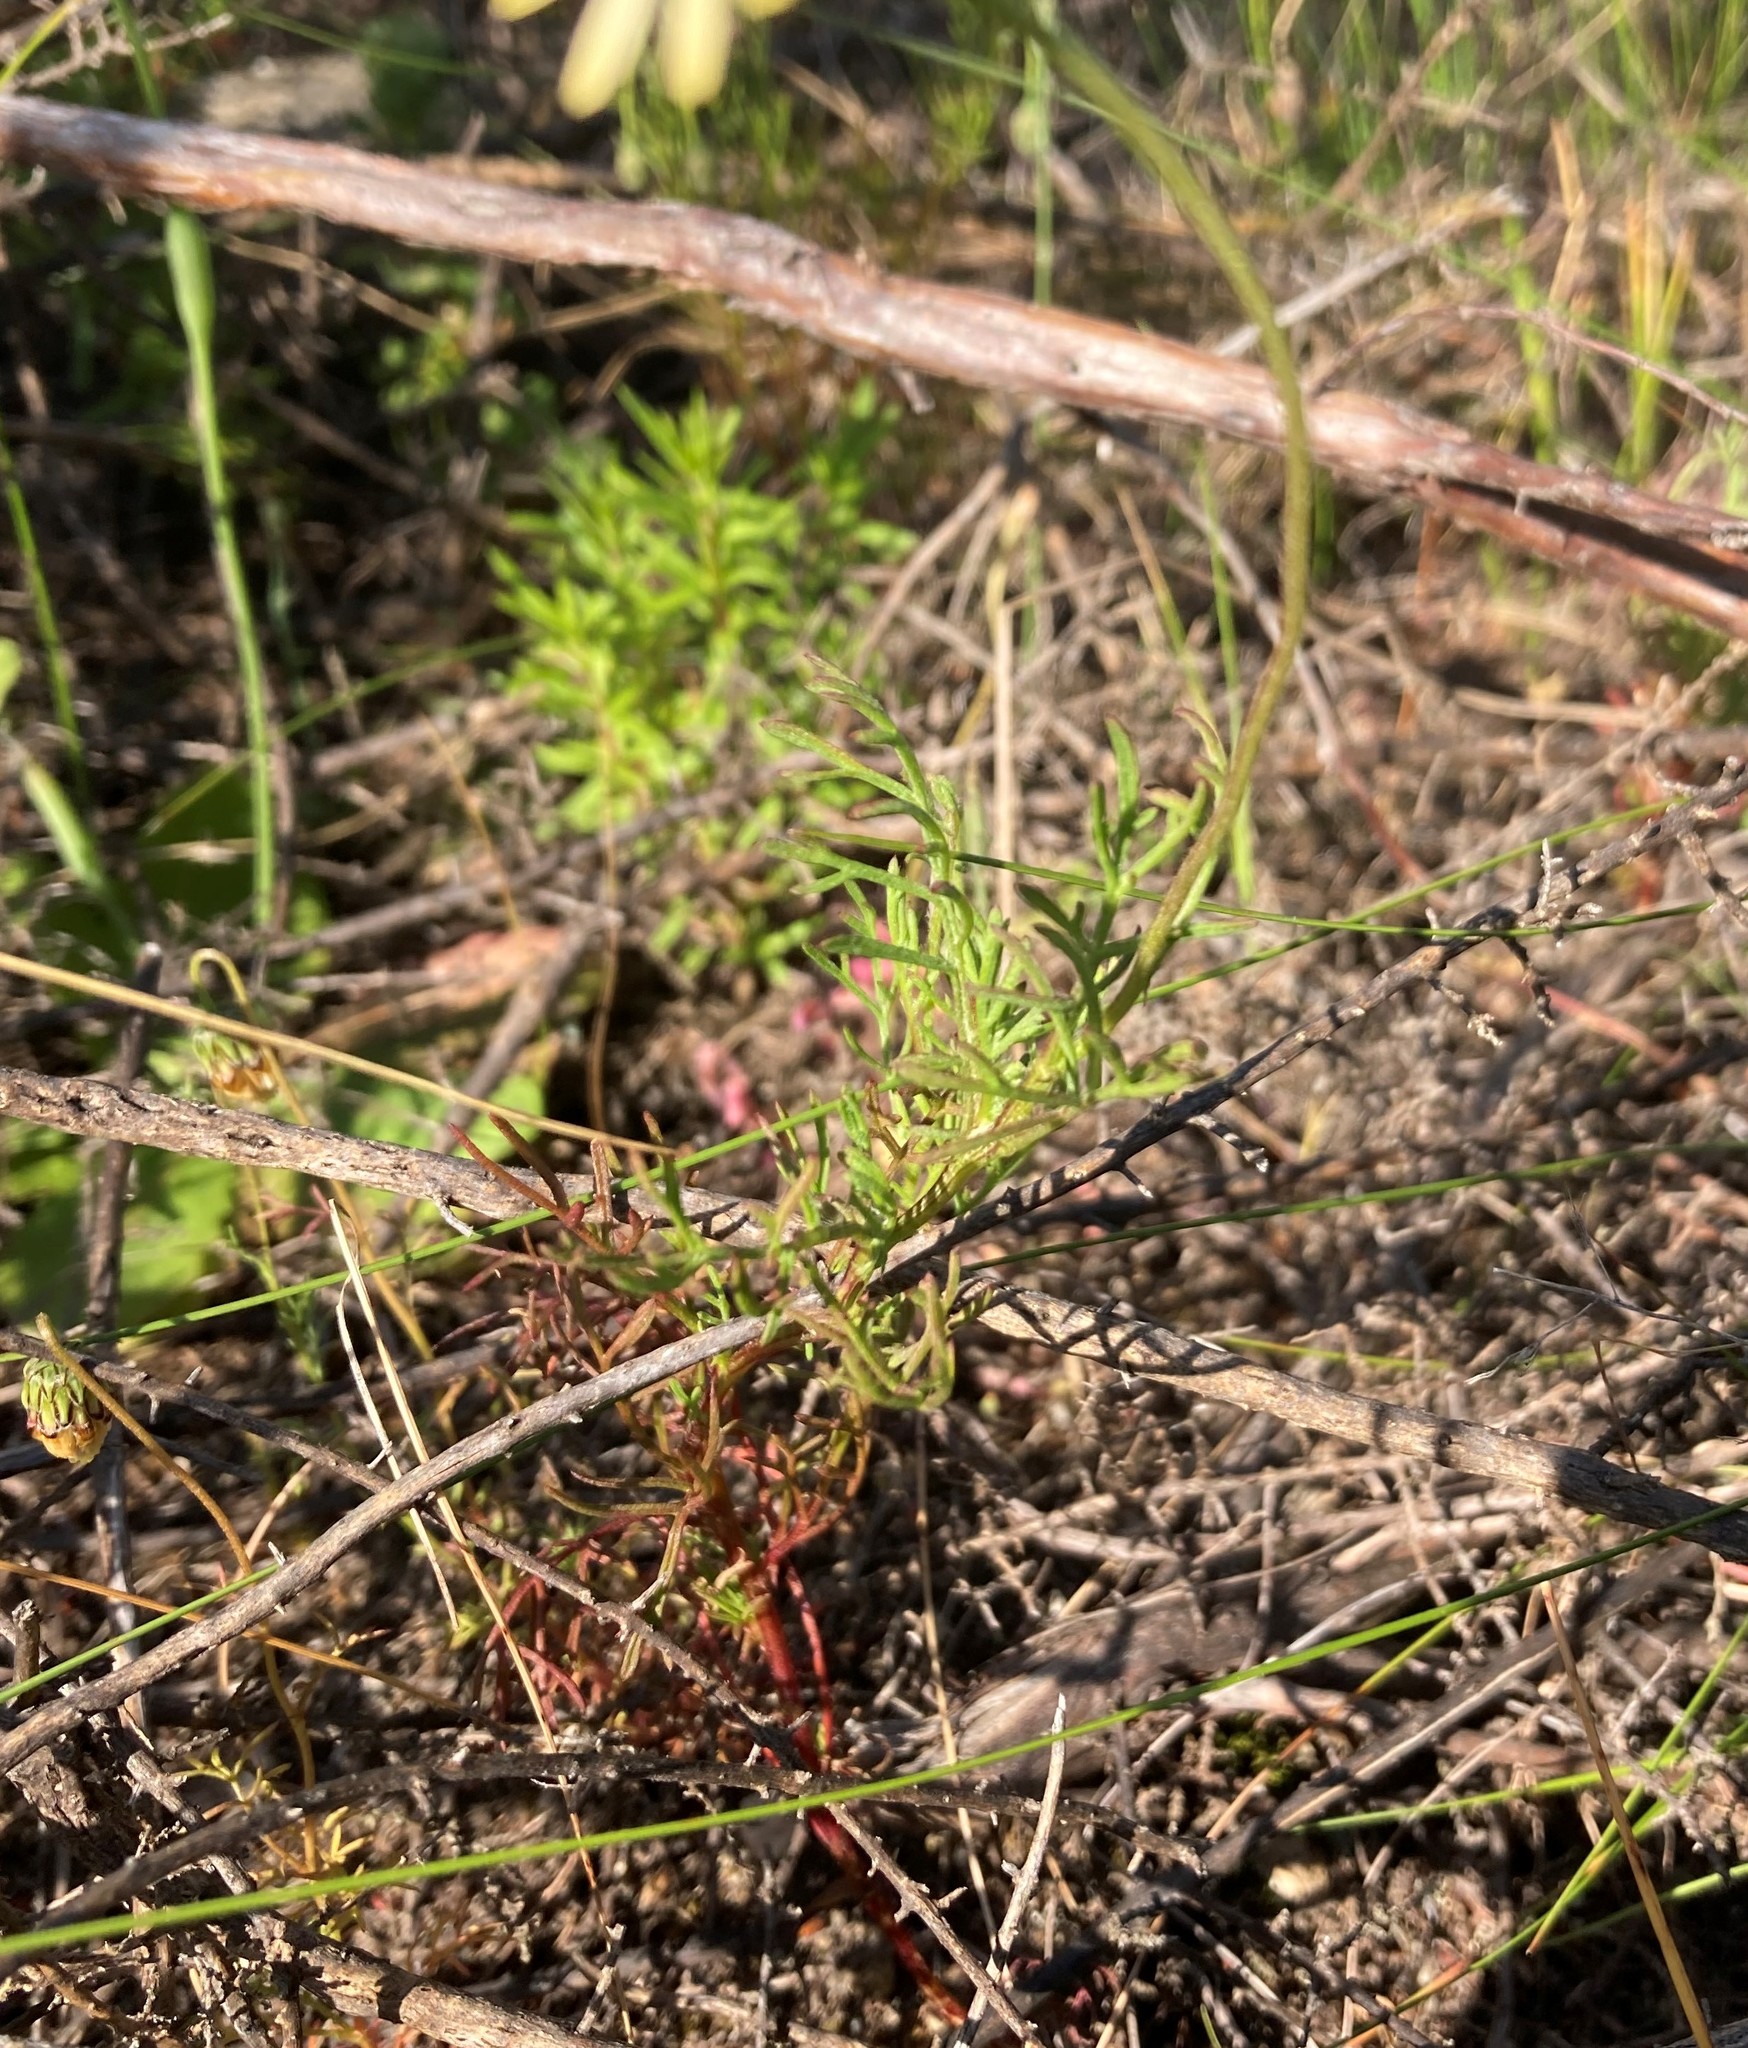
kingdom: Plantae
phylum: Tracheophyta
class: Magnoliopsida
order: Asterales
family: Asteraceae
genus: Ursinia
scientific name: Ursinia anthemoides
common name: Ursinia
